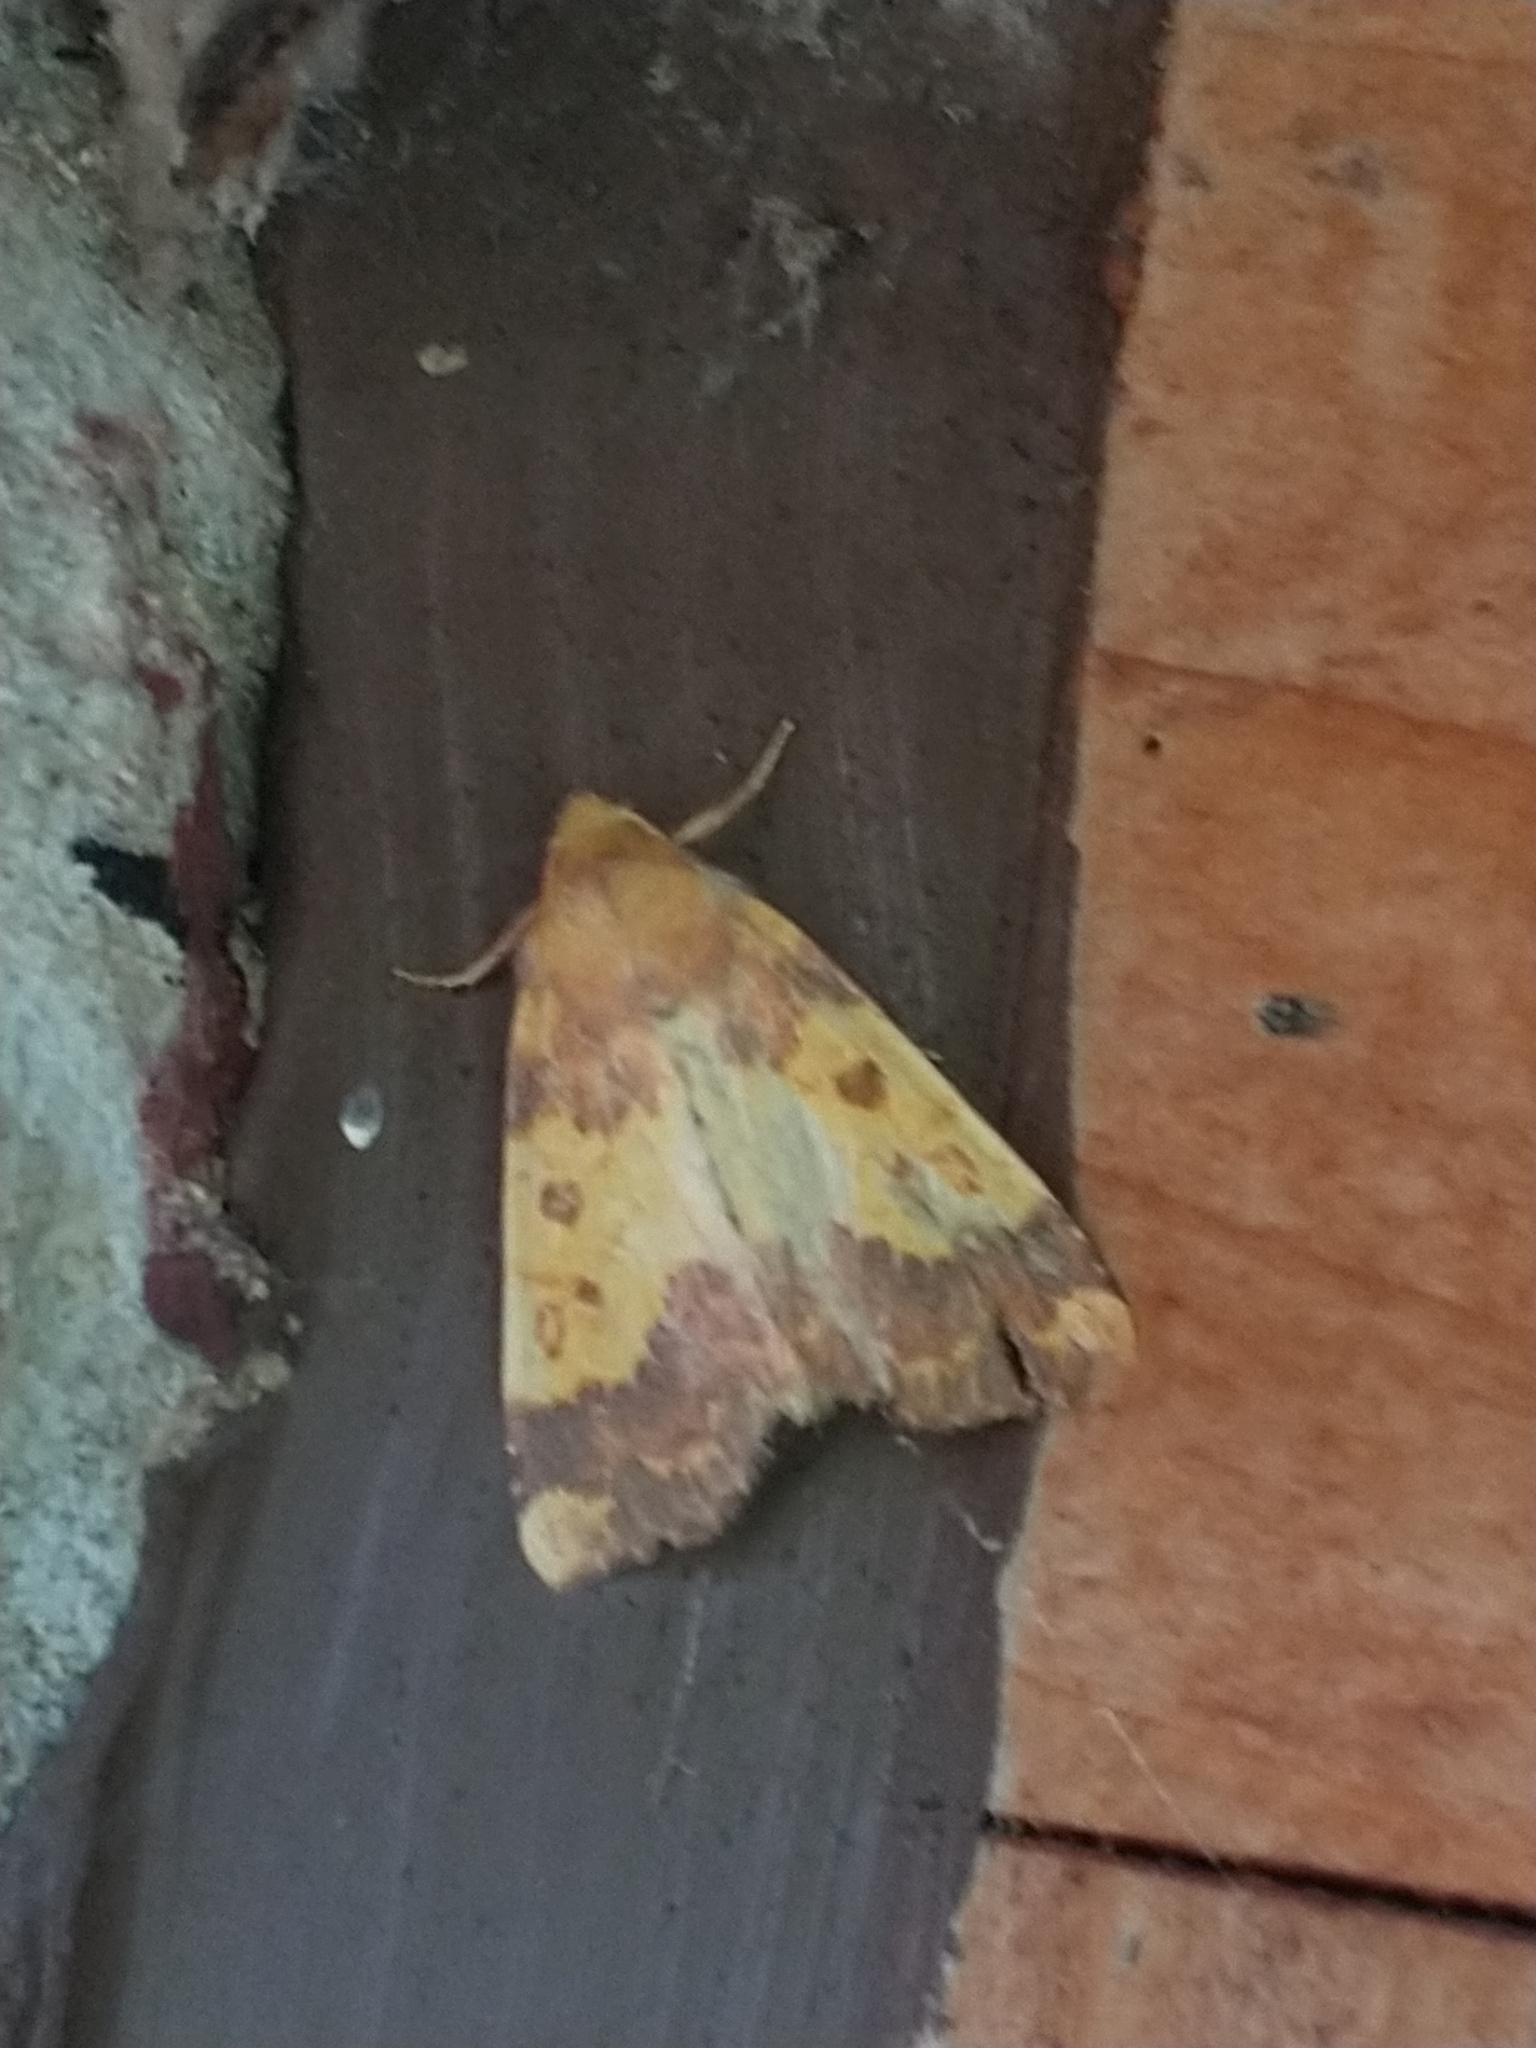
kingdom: Animalia
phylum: Arthropoda
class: Insecta
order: Lepidoptera
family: Noctuidae
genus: Tiliacea
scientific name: Tiliacea aurago
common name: Barred sallow
